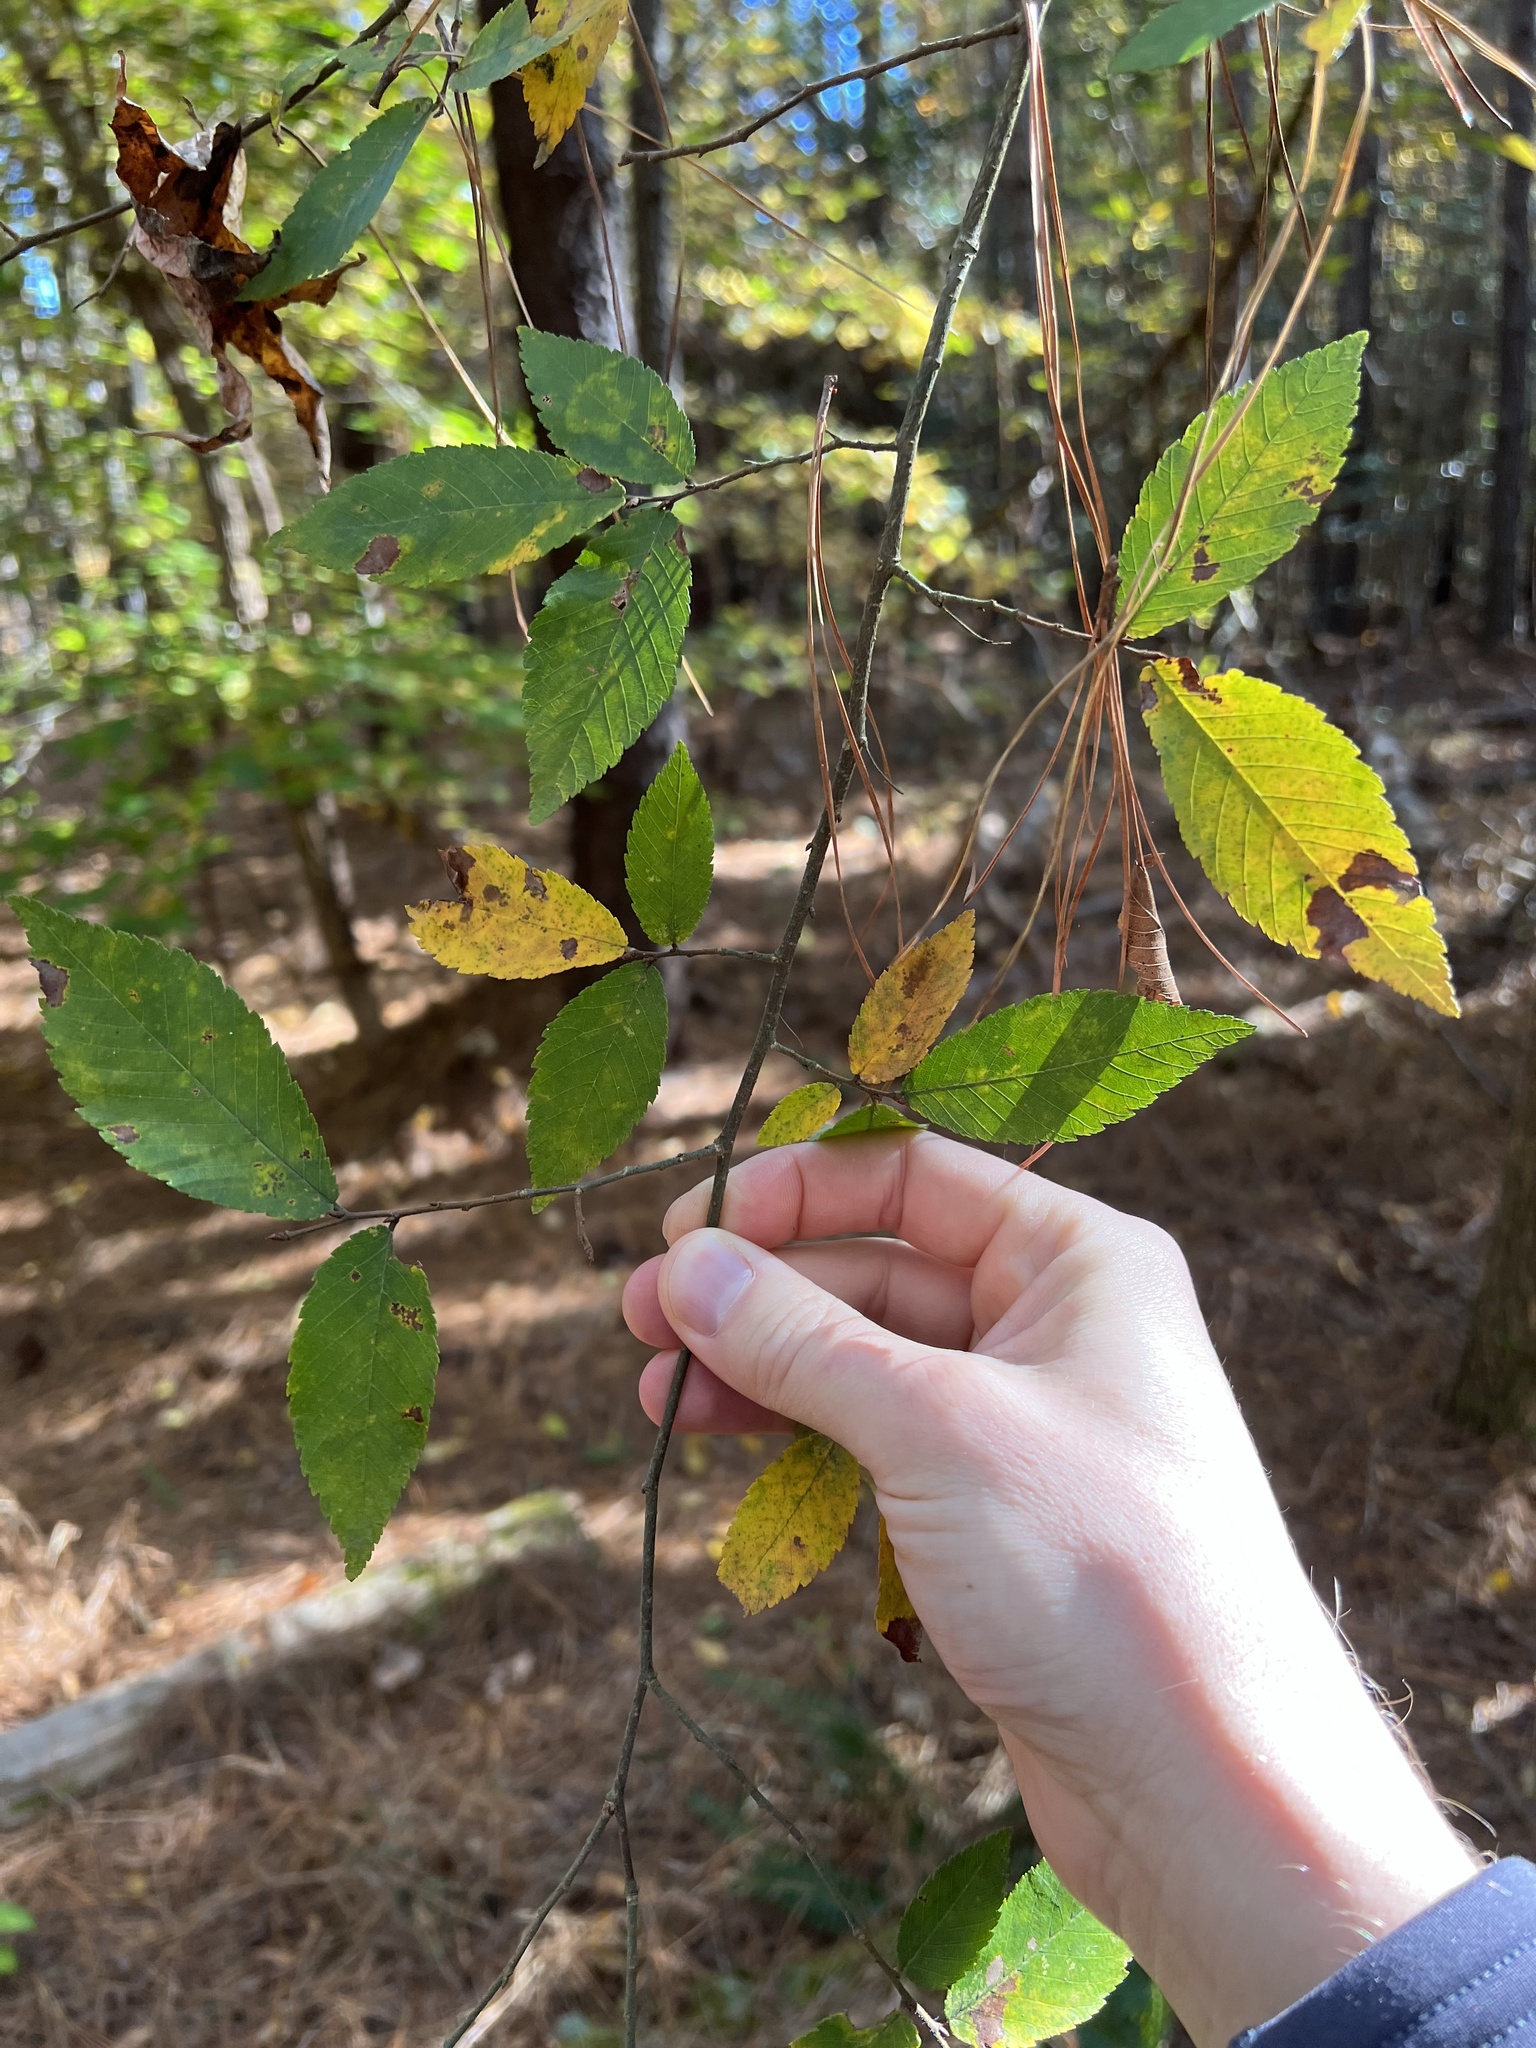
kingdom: Plantae
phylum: Tracheophyta
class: Magnoliopsida
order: Rosales
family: Ulmaceae
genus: Ulmus
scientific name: Ulmus alata
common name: Winged elm
